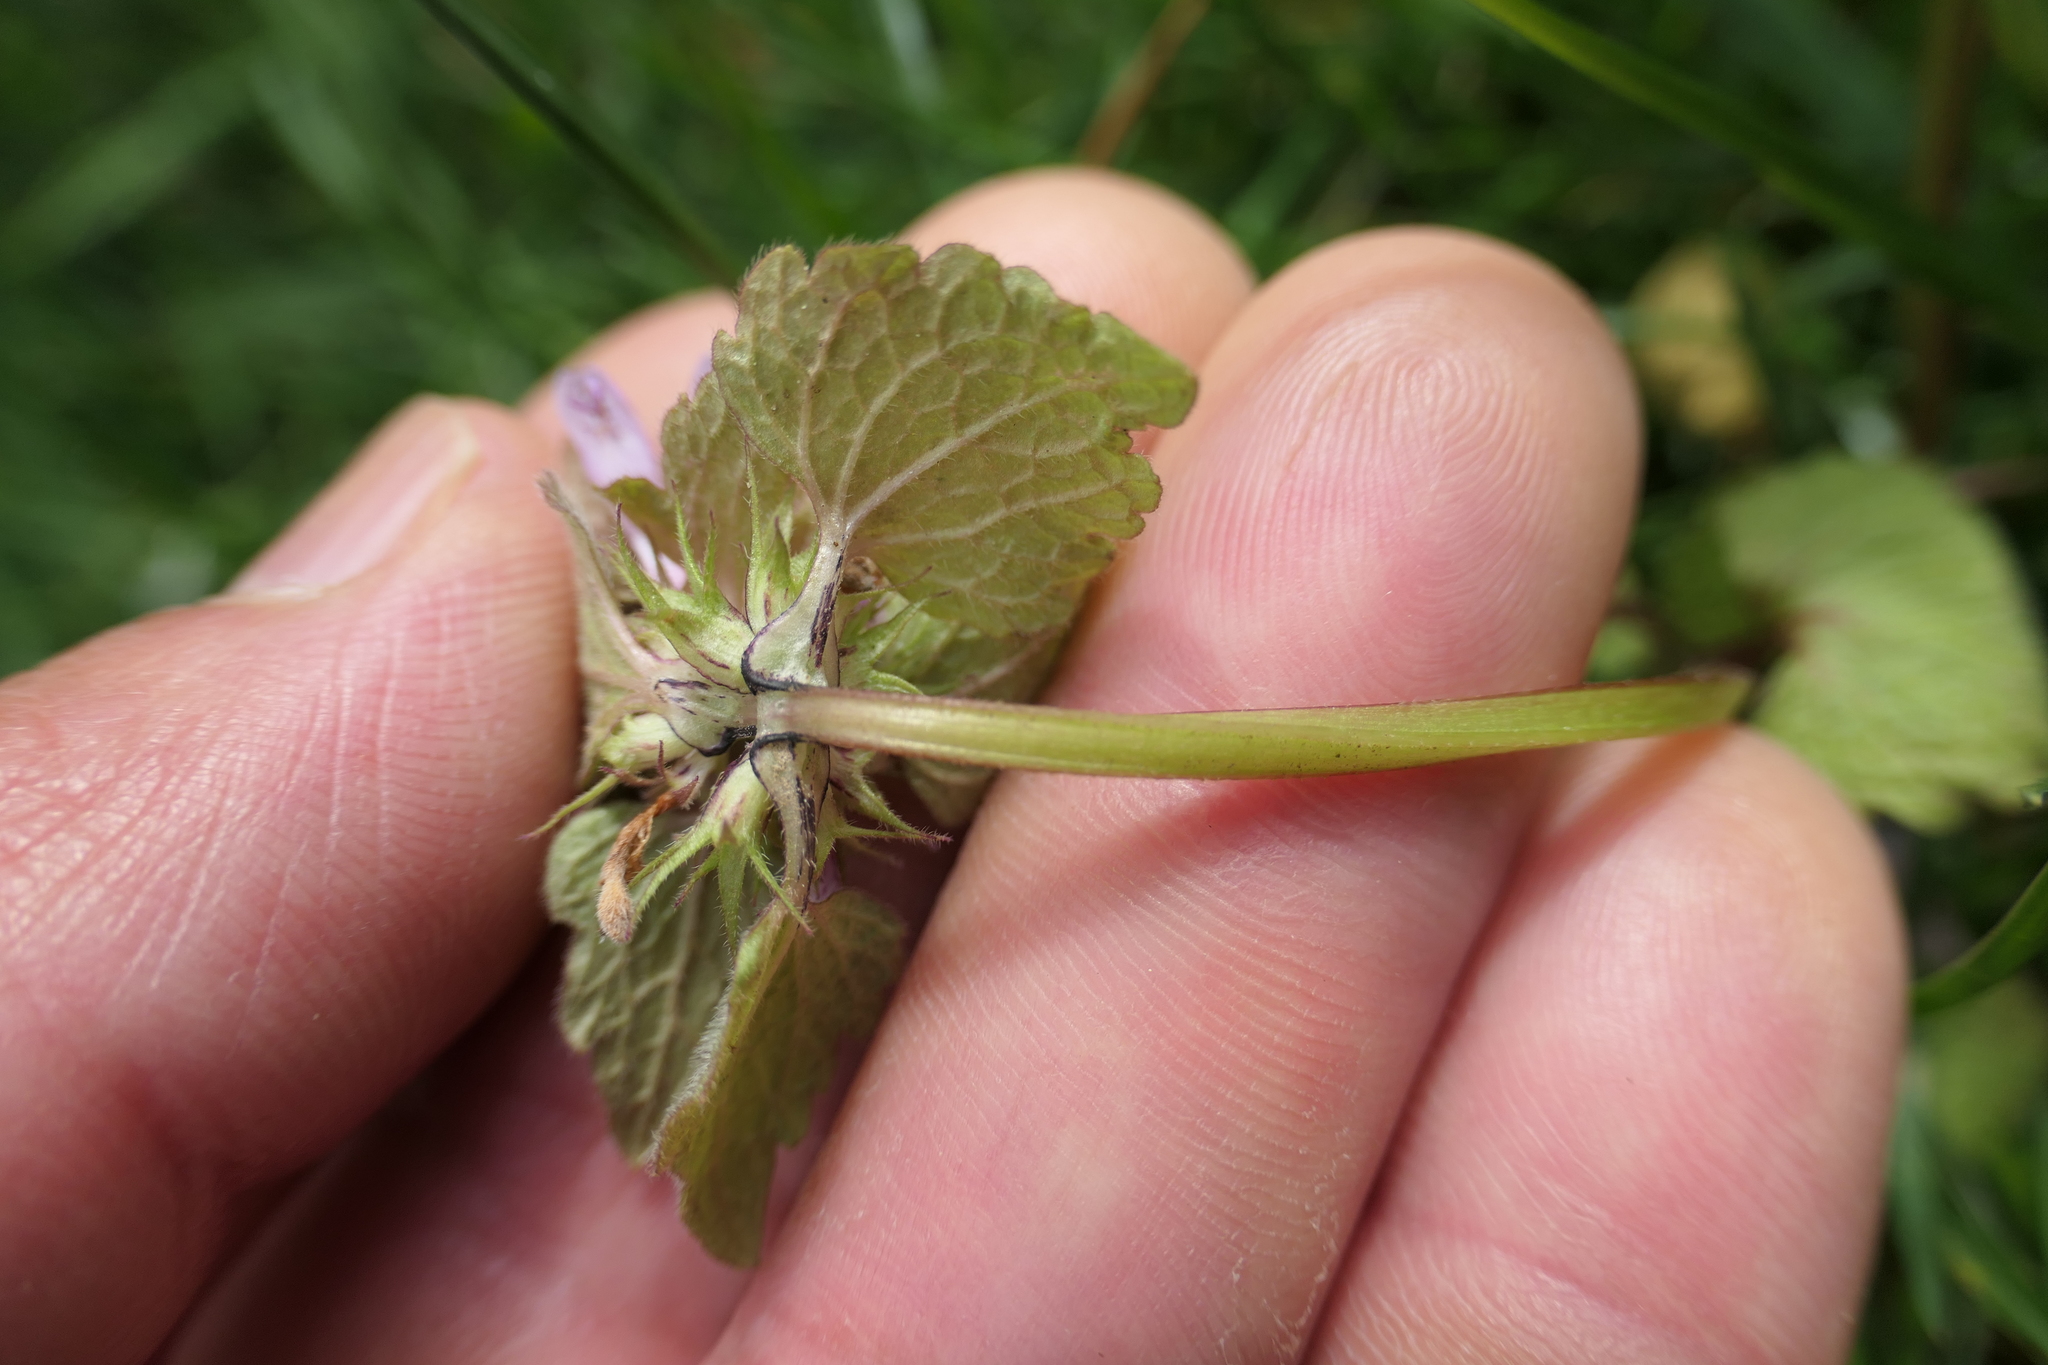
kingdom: Plantae
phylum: Tracheophyta
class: Magnoliopsida
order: Lamiales
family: Lamiaceae
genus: Lamium
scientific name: Lamium purpureum
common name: Red dead-nettle
